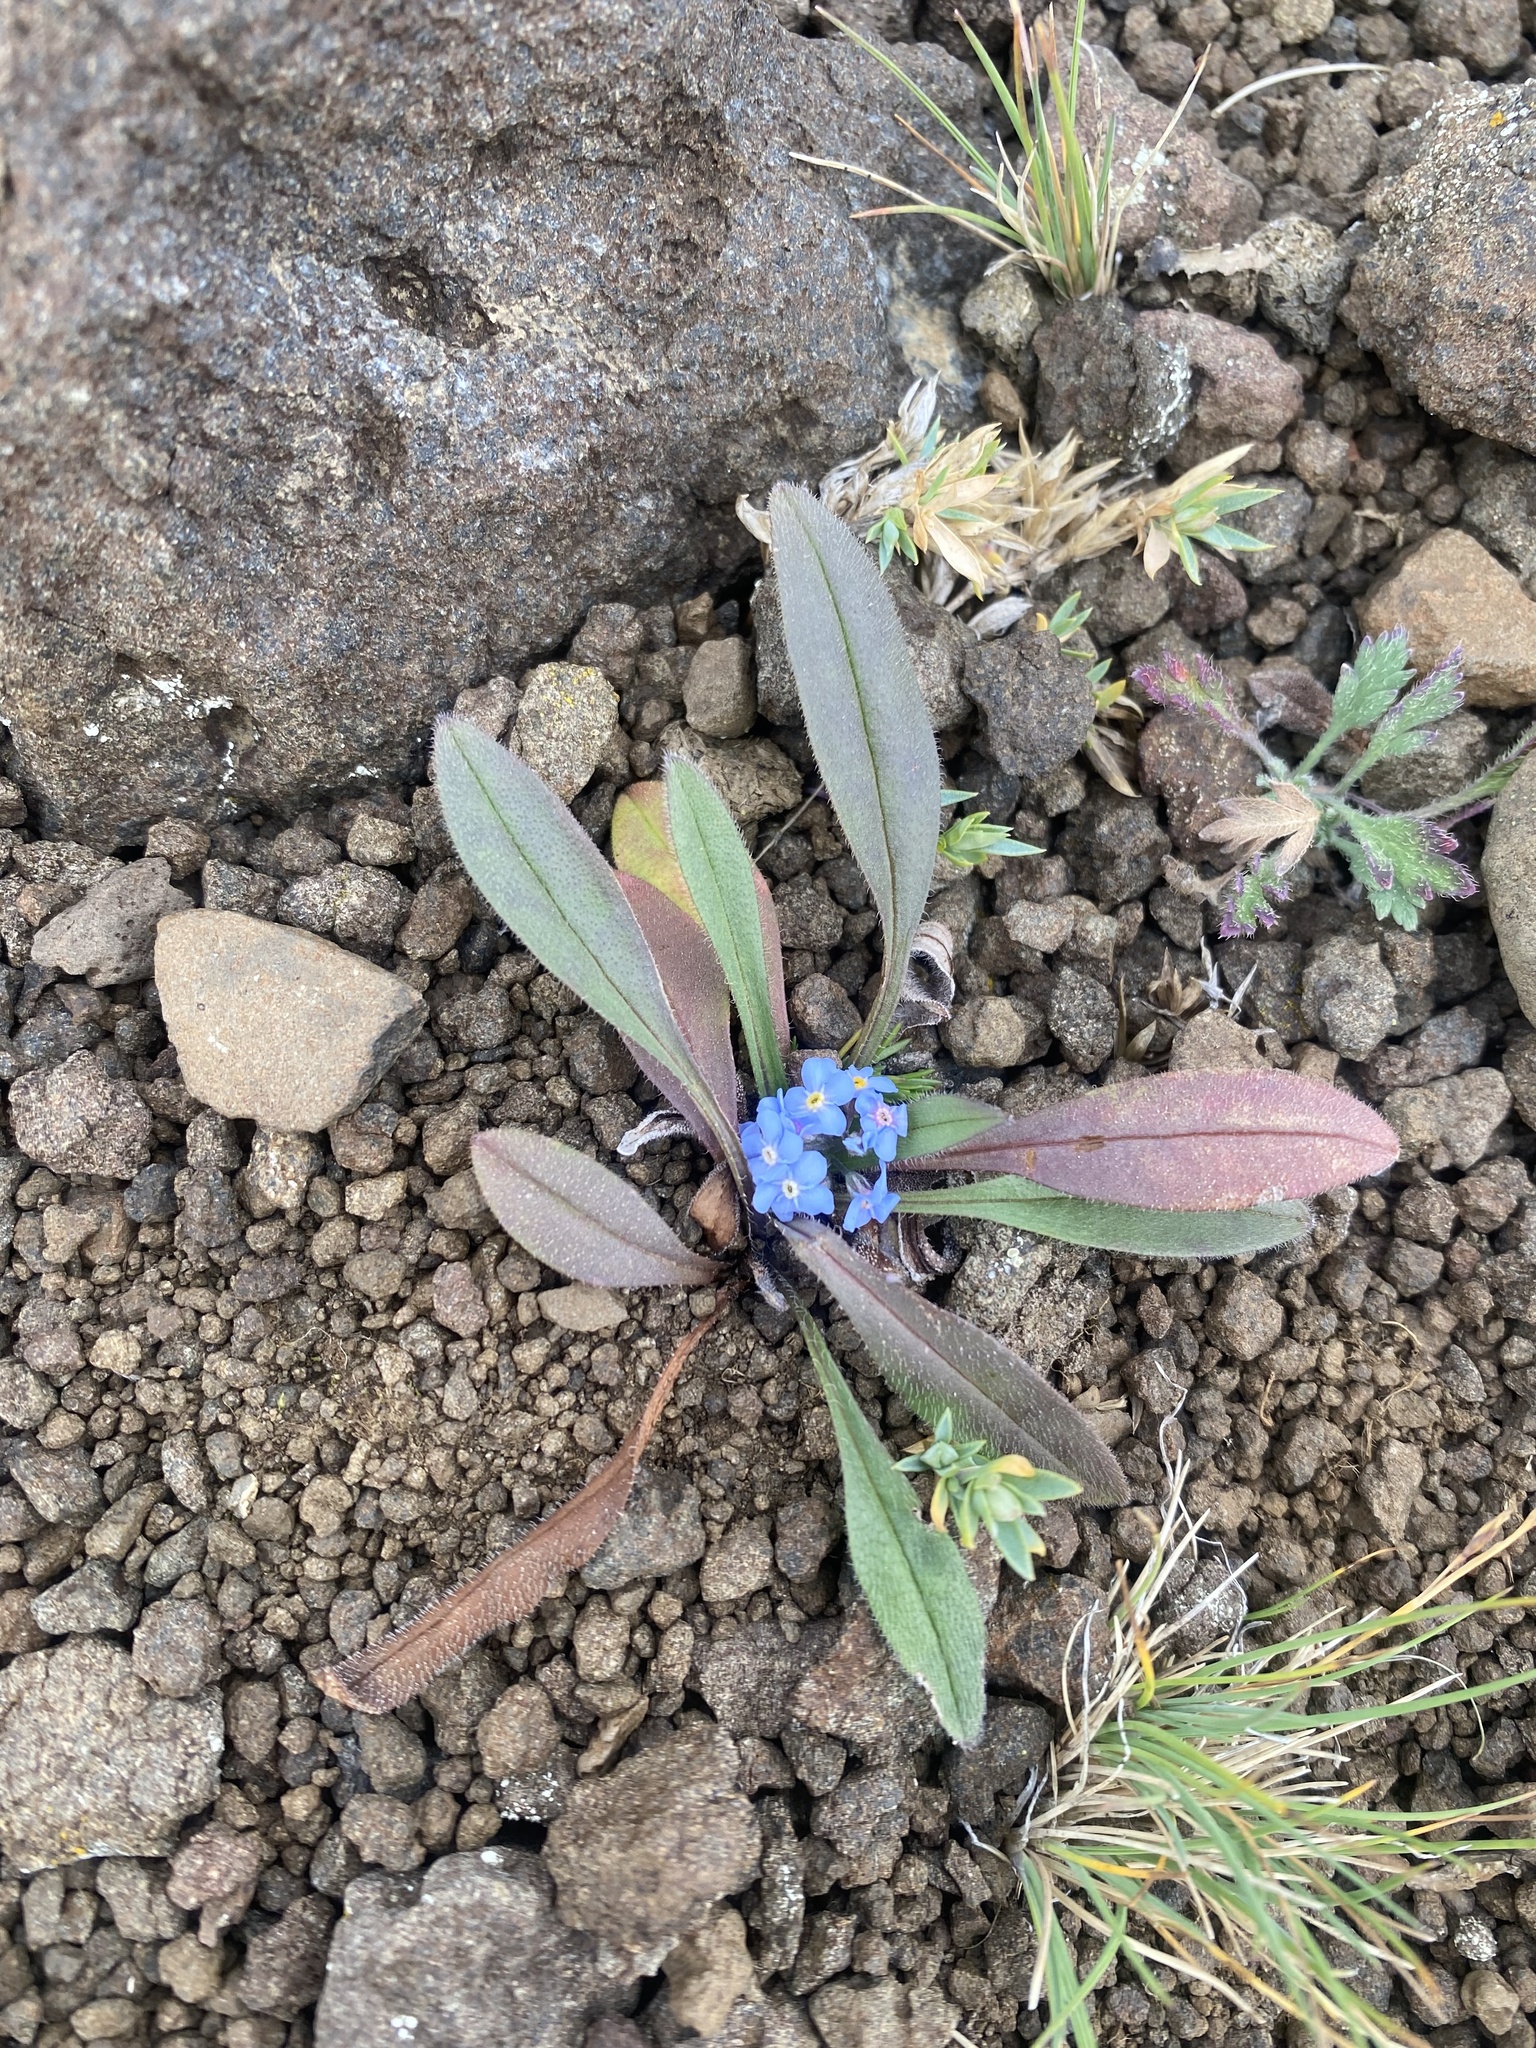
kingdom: Plantae
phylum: Tracheophyta
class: Magnoliopsida
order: Boraginales
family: Boraginaceae
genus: Myosotis
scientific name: Myosotis asiatica
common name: Asian forget-me-not
